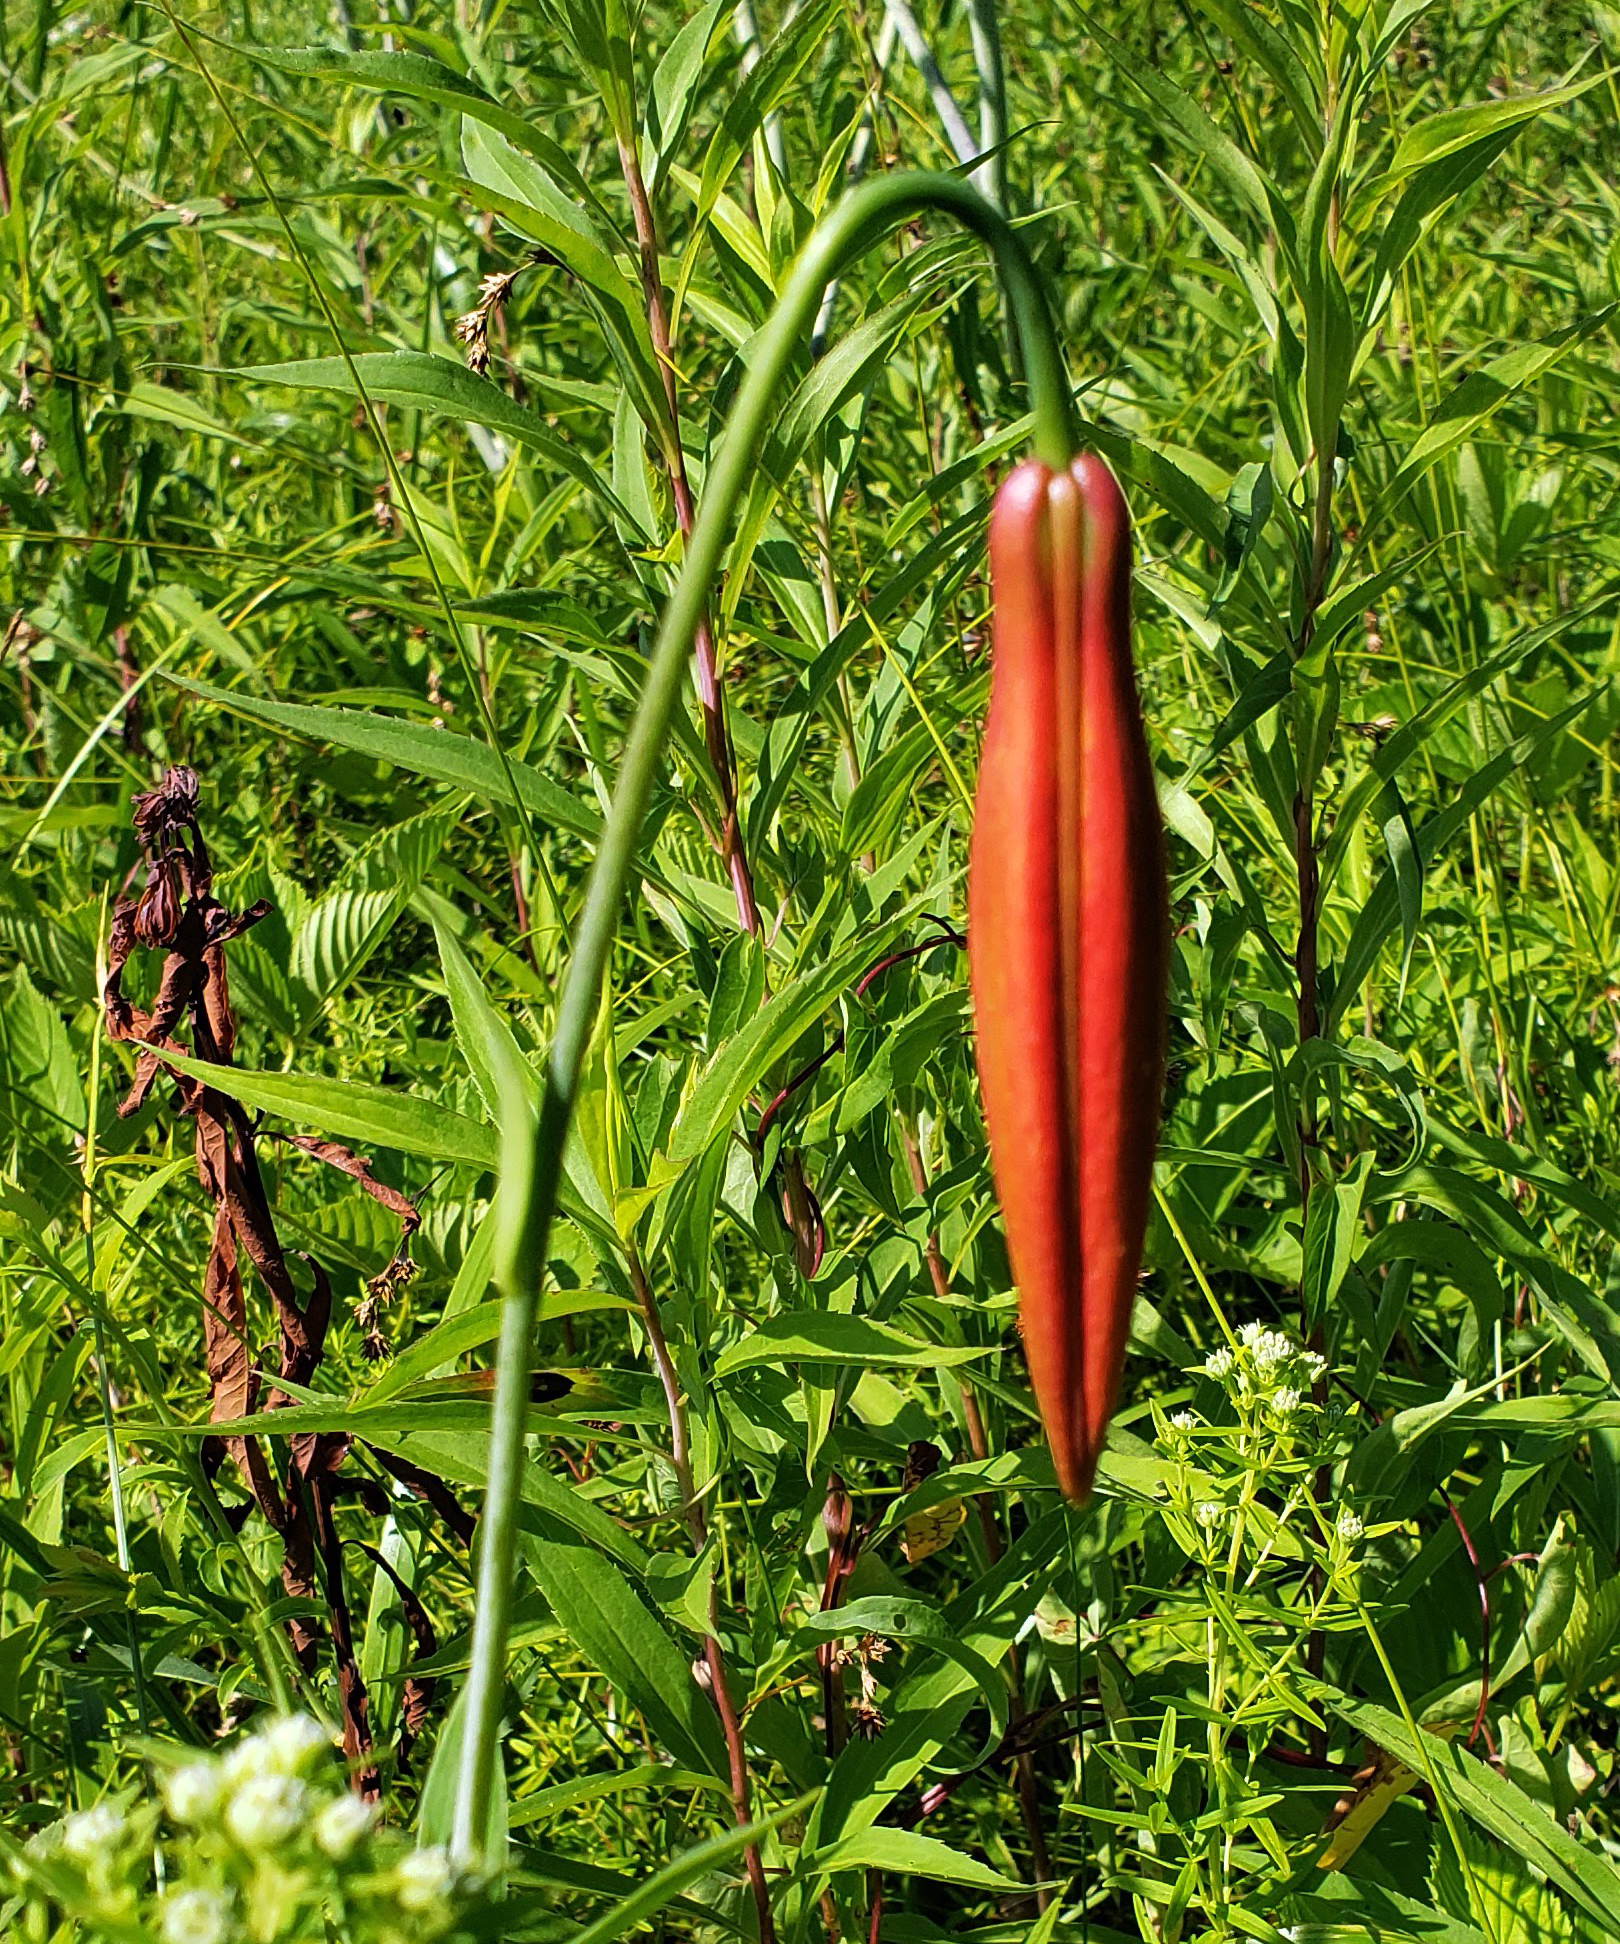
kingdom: Plantae
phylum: Tracheophyta
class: Liliopsida
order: Liliales
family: Liliaceae
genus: Lilium
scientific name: Lilium michiganense
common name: Michigan lily
